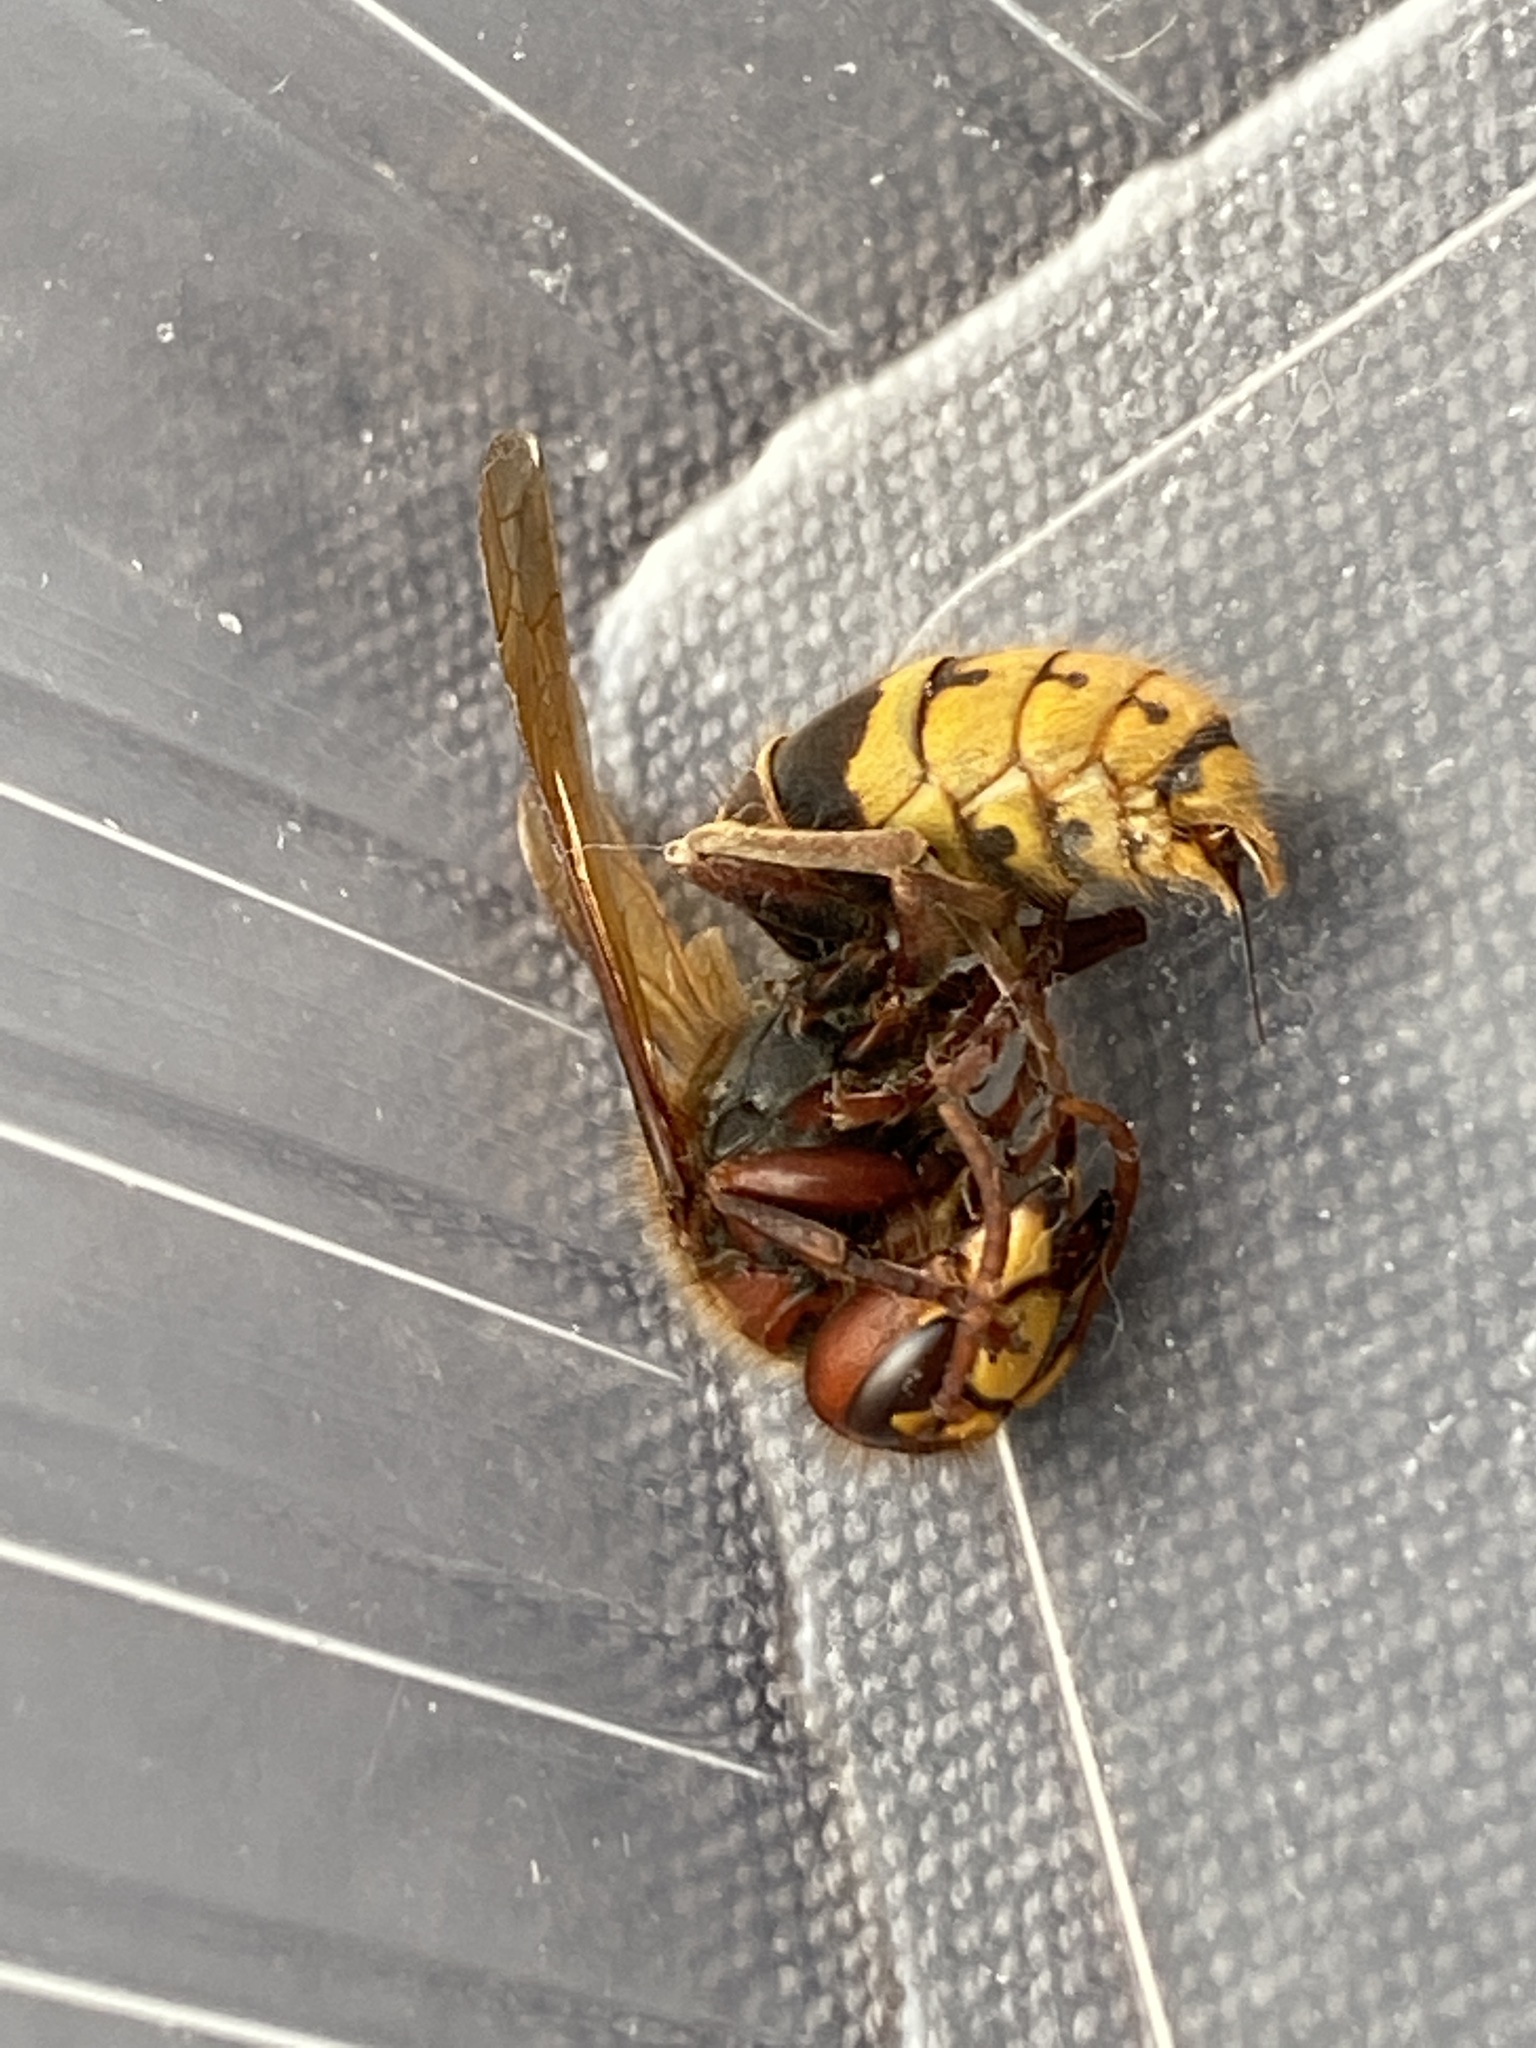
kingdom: Animalia
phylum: Arthropoda
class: Insecta
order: Hymenoptera
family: Vespidae
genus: Vespa
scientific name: Vespa crabro
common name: Hornet
